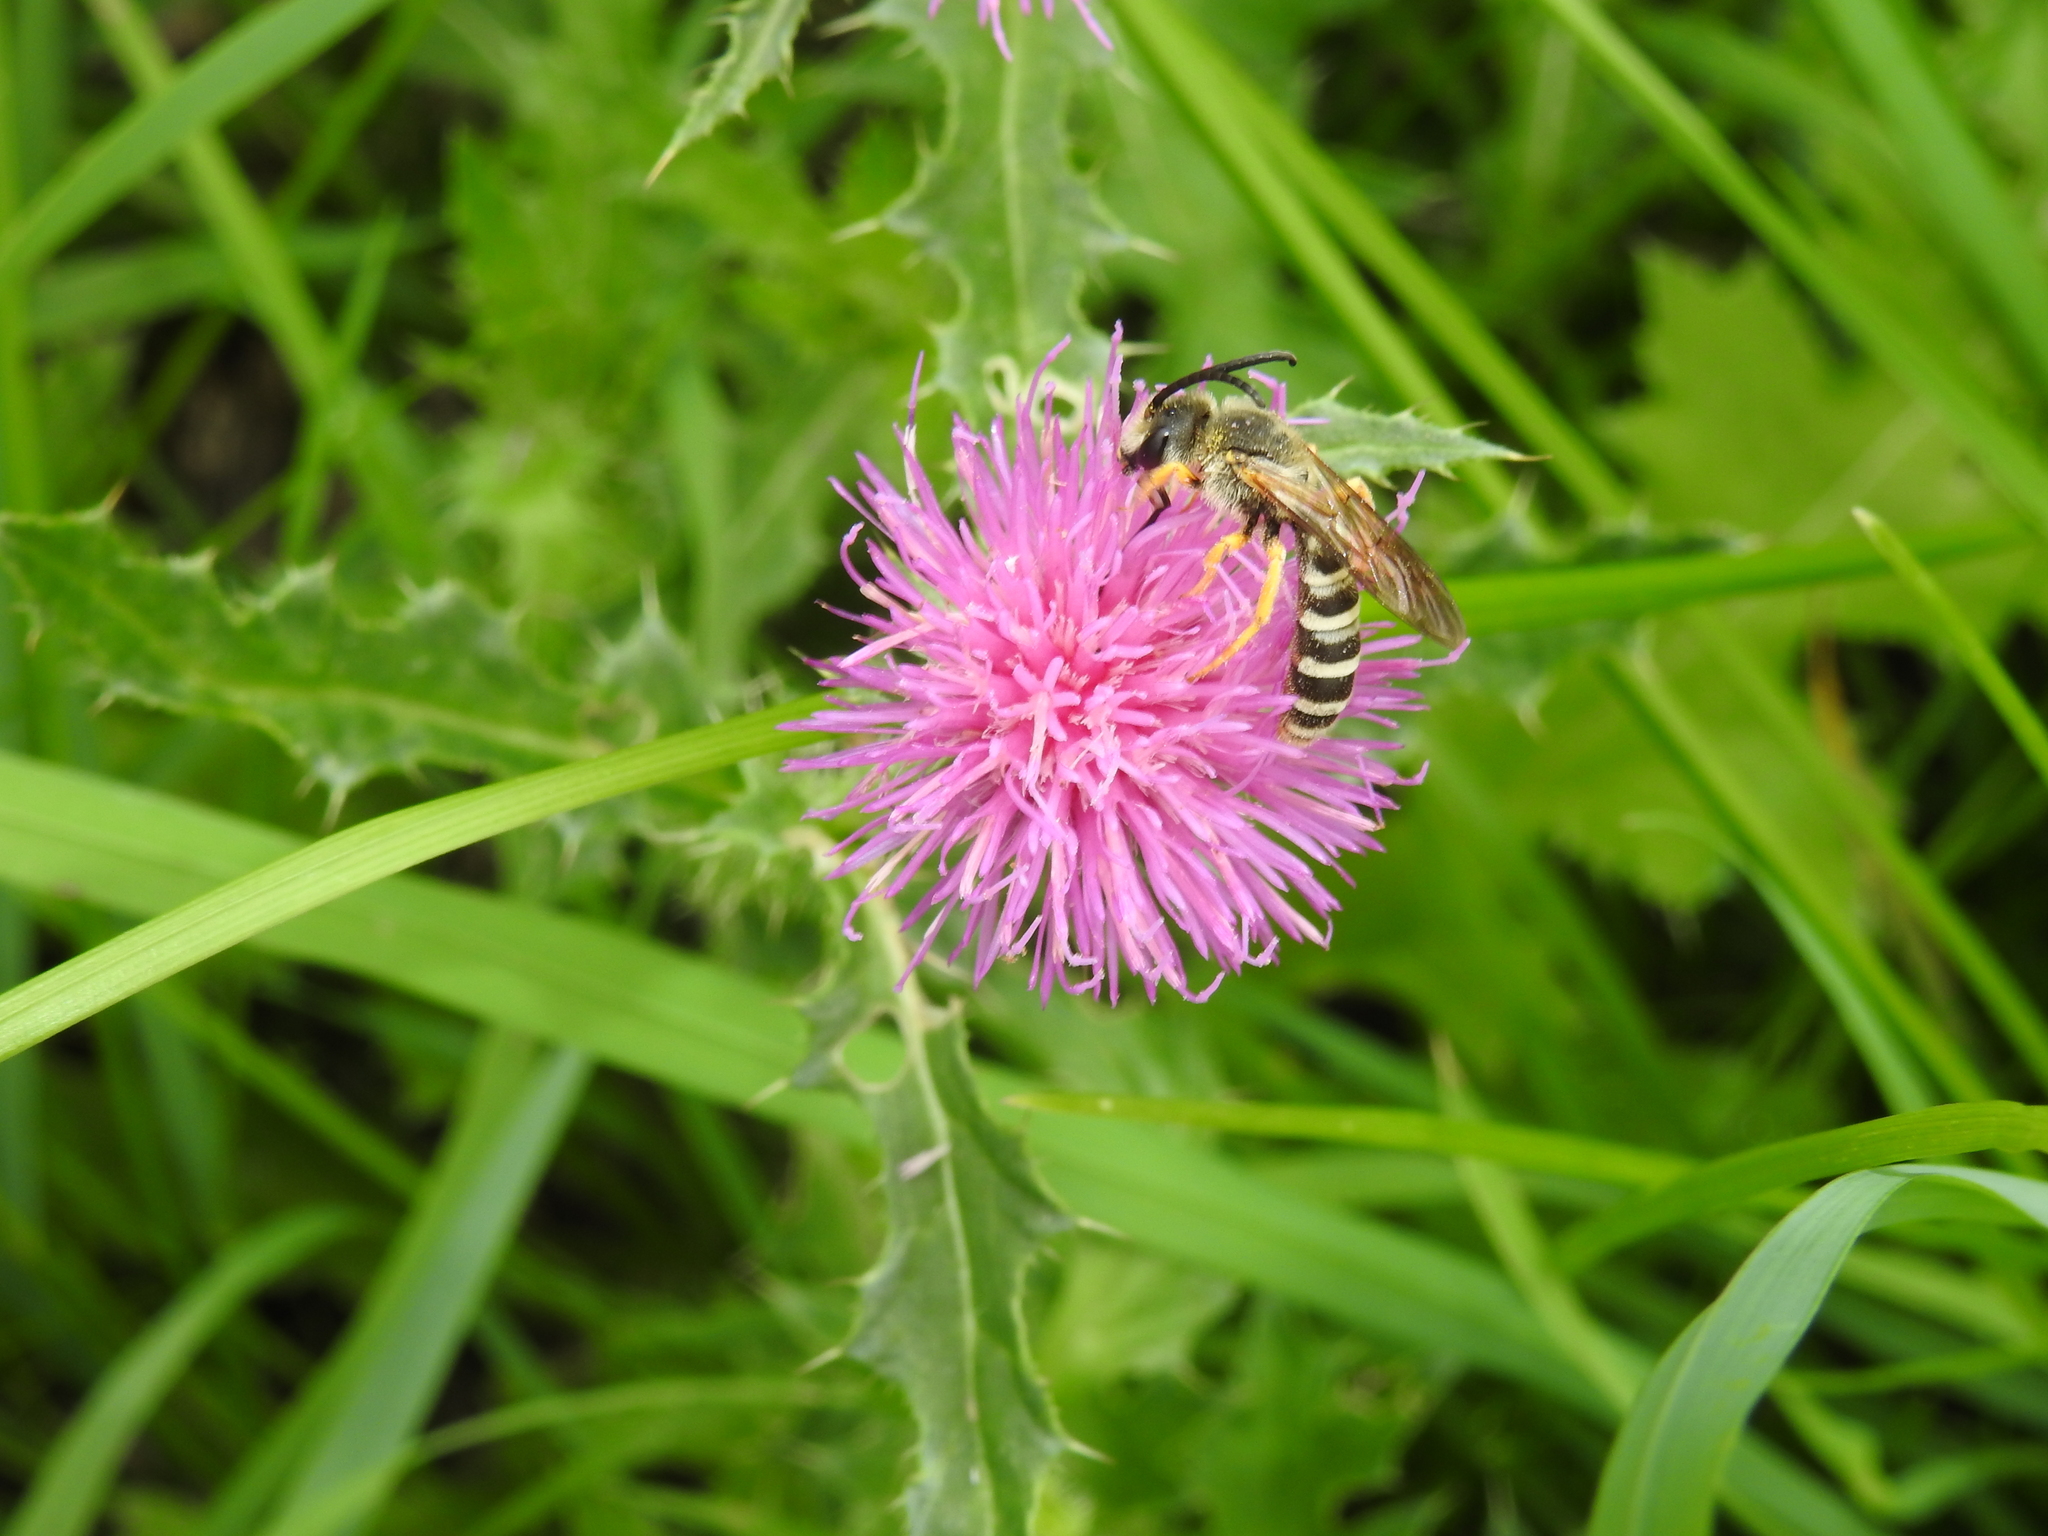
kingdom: Animalia
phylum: Arthropoda
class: Insecta
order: Hymenoptera
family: Halictidae
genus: Halictus
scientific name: Halictus scabiosae
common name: Great banded furrow bee
